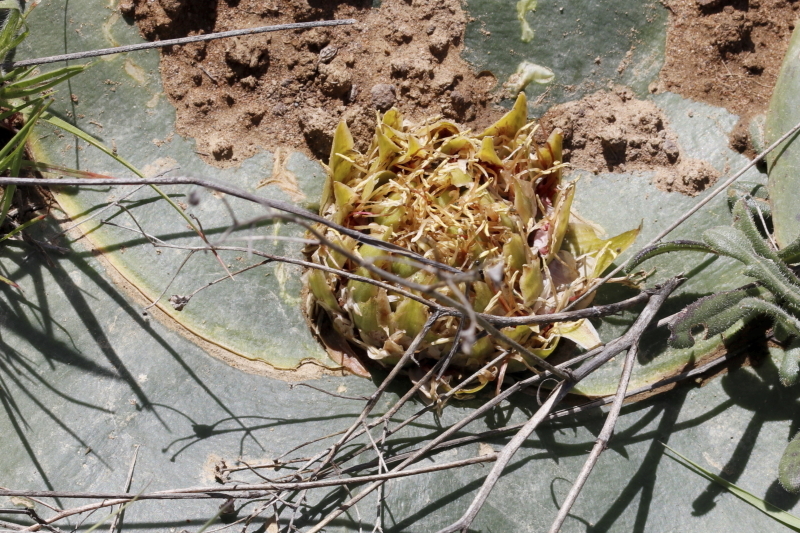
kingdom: Plantae
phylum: Tracheophyta
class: Liliopsida
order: Asparagales
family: Asparagaceae
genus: Massonia
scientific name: Massonia depressa
